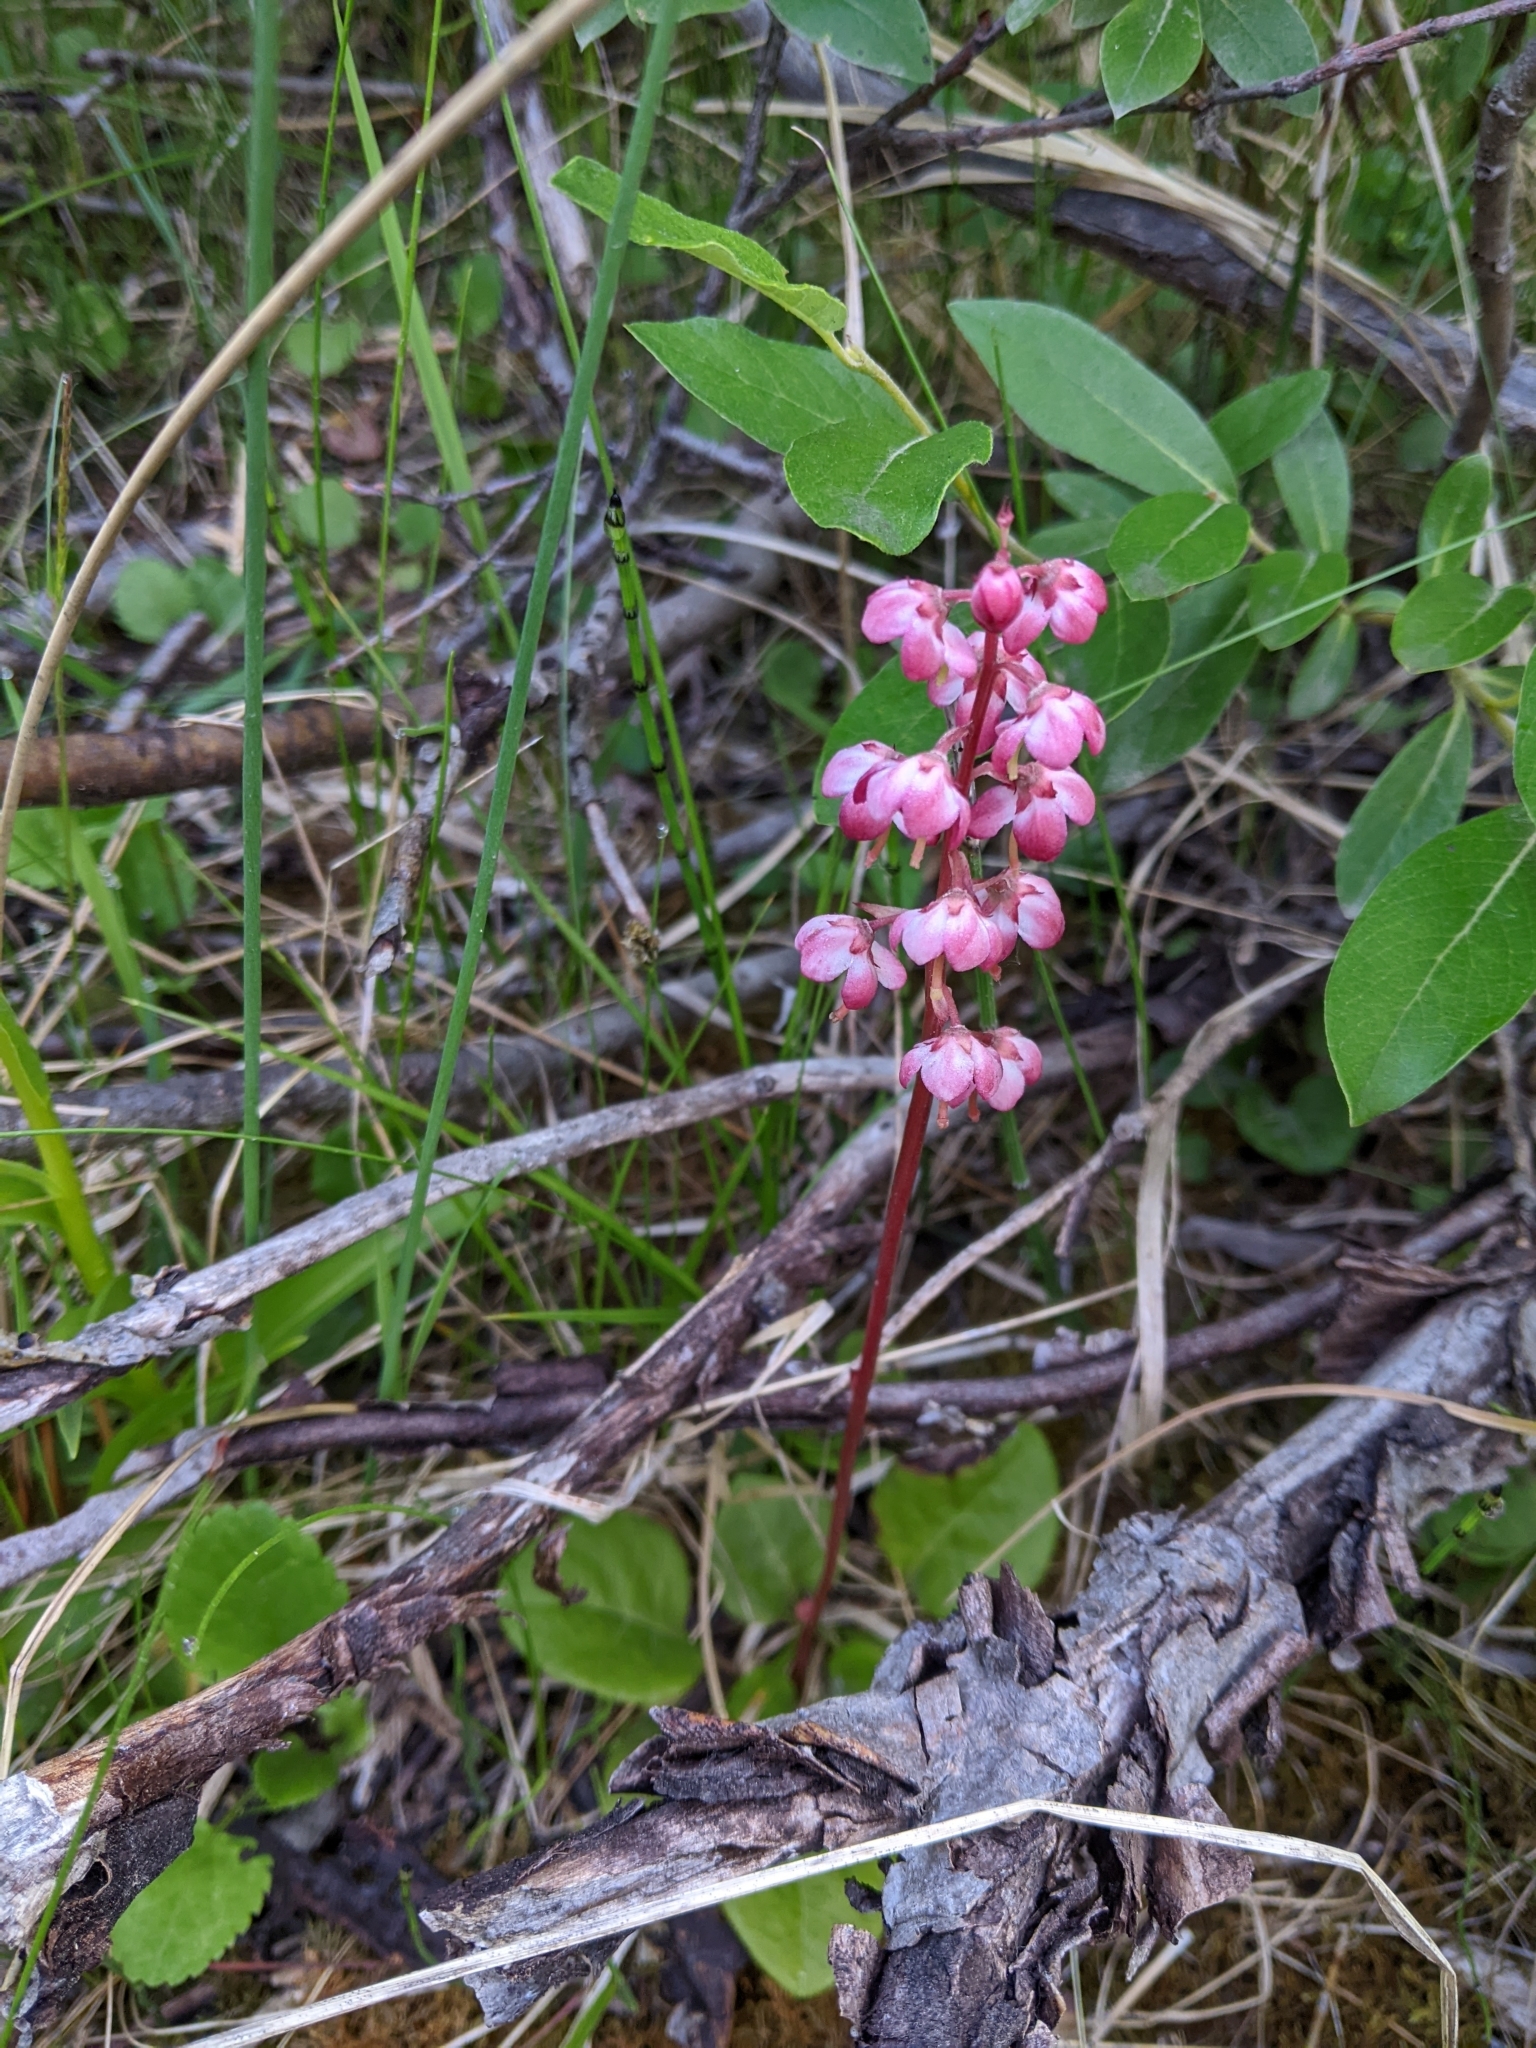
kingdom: Plantae
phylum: Tracheophyta
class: Magnoliopsida
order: Ericales
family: Ericaceae
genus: Pyrola
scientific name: Pyrola asarifolia
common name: Bog wintergreen
